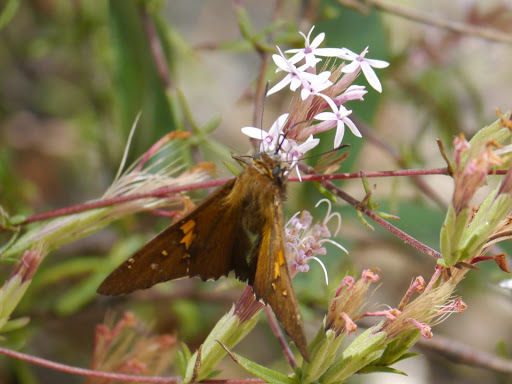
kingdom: Animalia
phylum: Arthropoda
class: Insecta
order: Lepidoptera
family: Hesperiidae
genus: Epargyreus
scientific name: Epargyreus clarus
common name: Silver-spotted skipper
